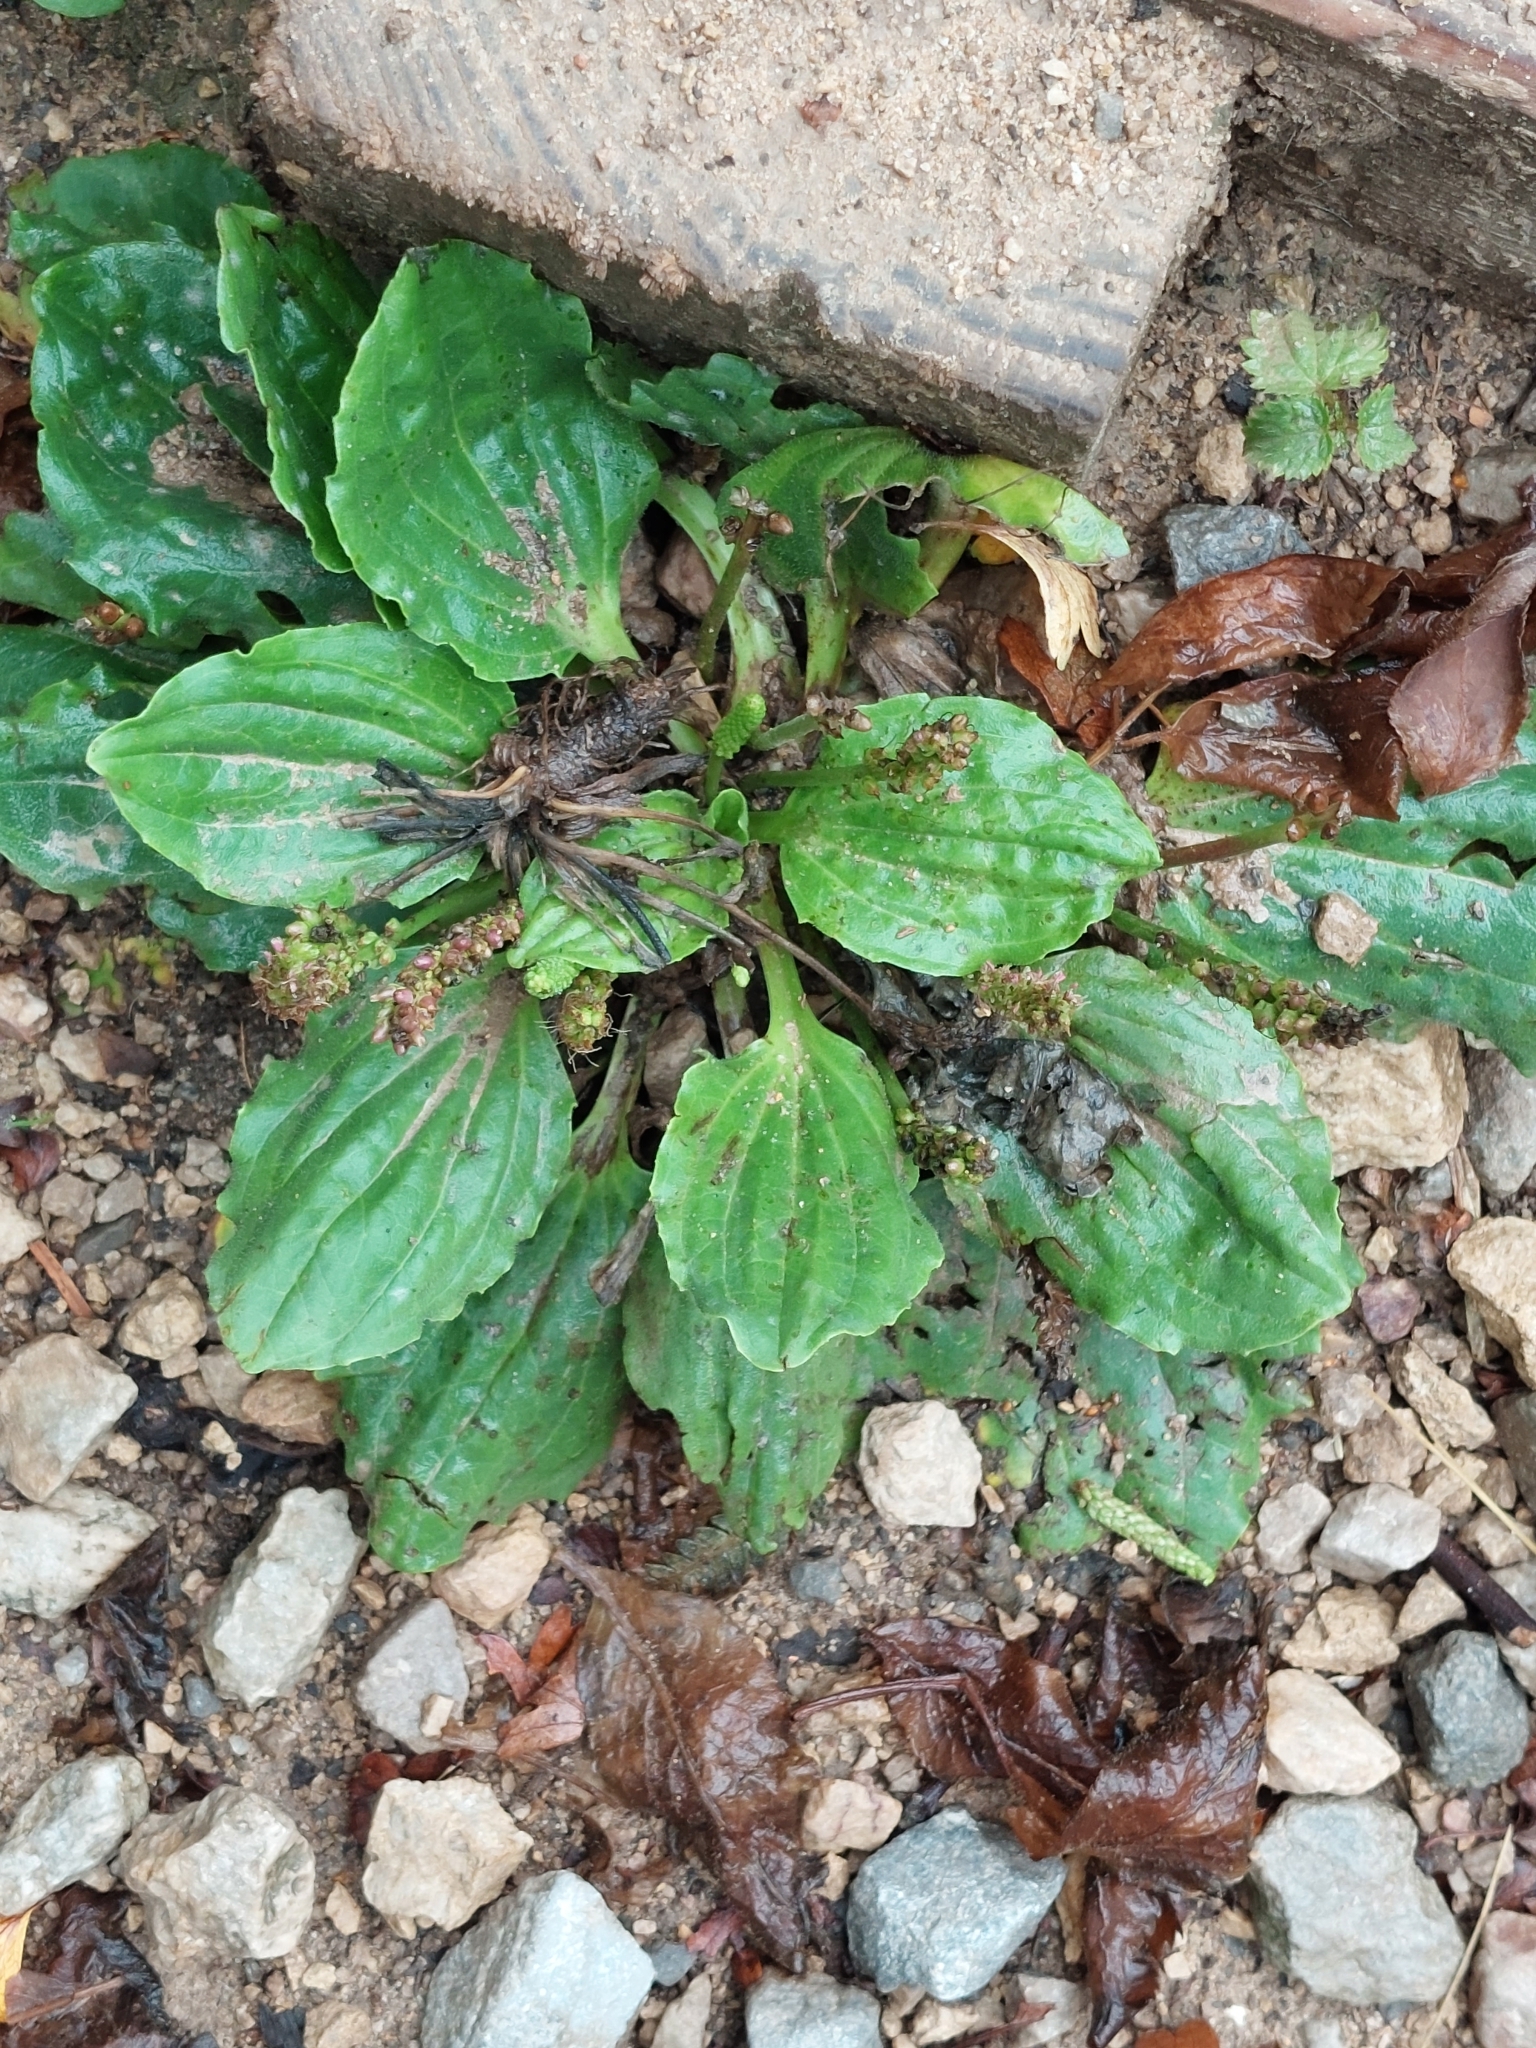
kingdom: Plantae
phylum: Tracheophyta
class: Magnoliopsida
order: Lamiales
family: Plantaginaceae
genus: Plantago
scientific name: Plantago major
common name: Common plantain
